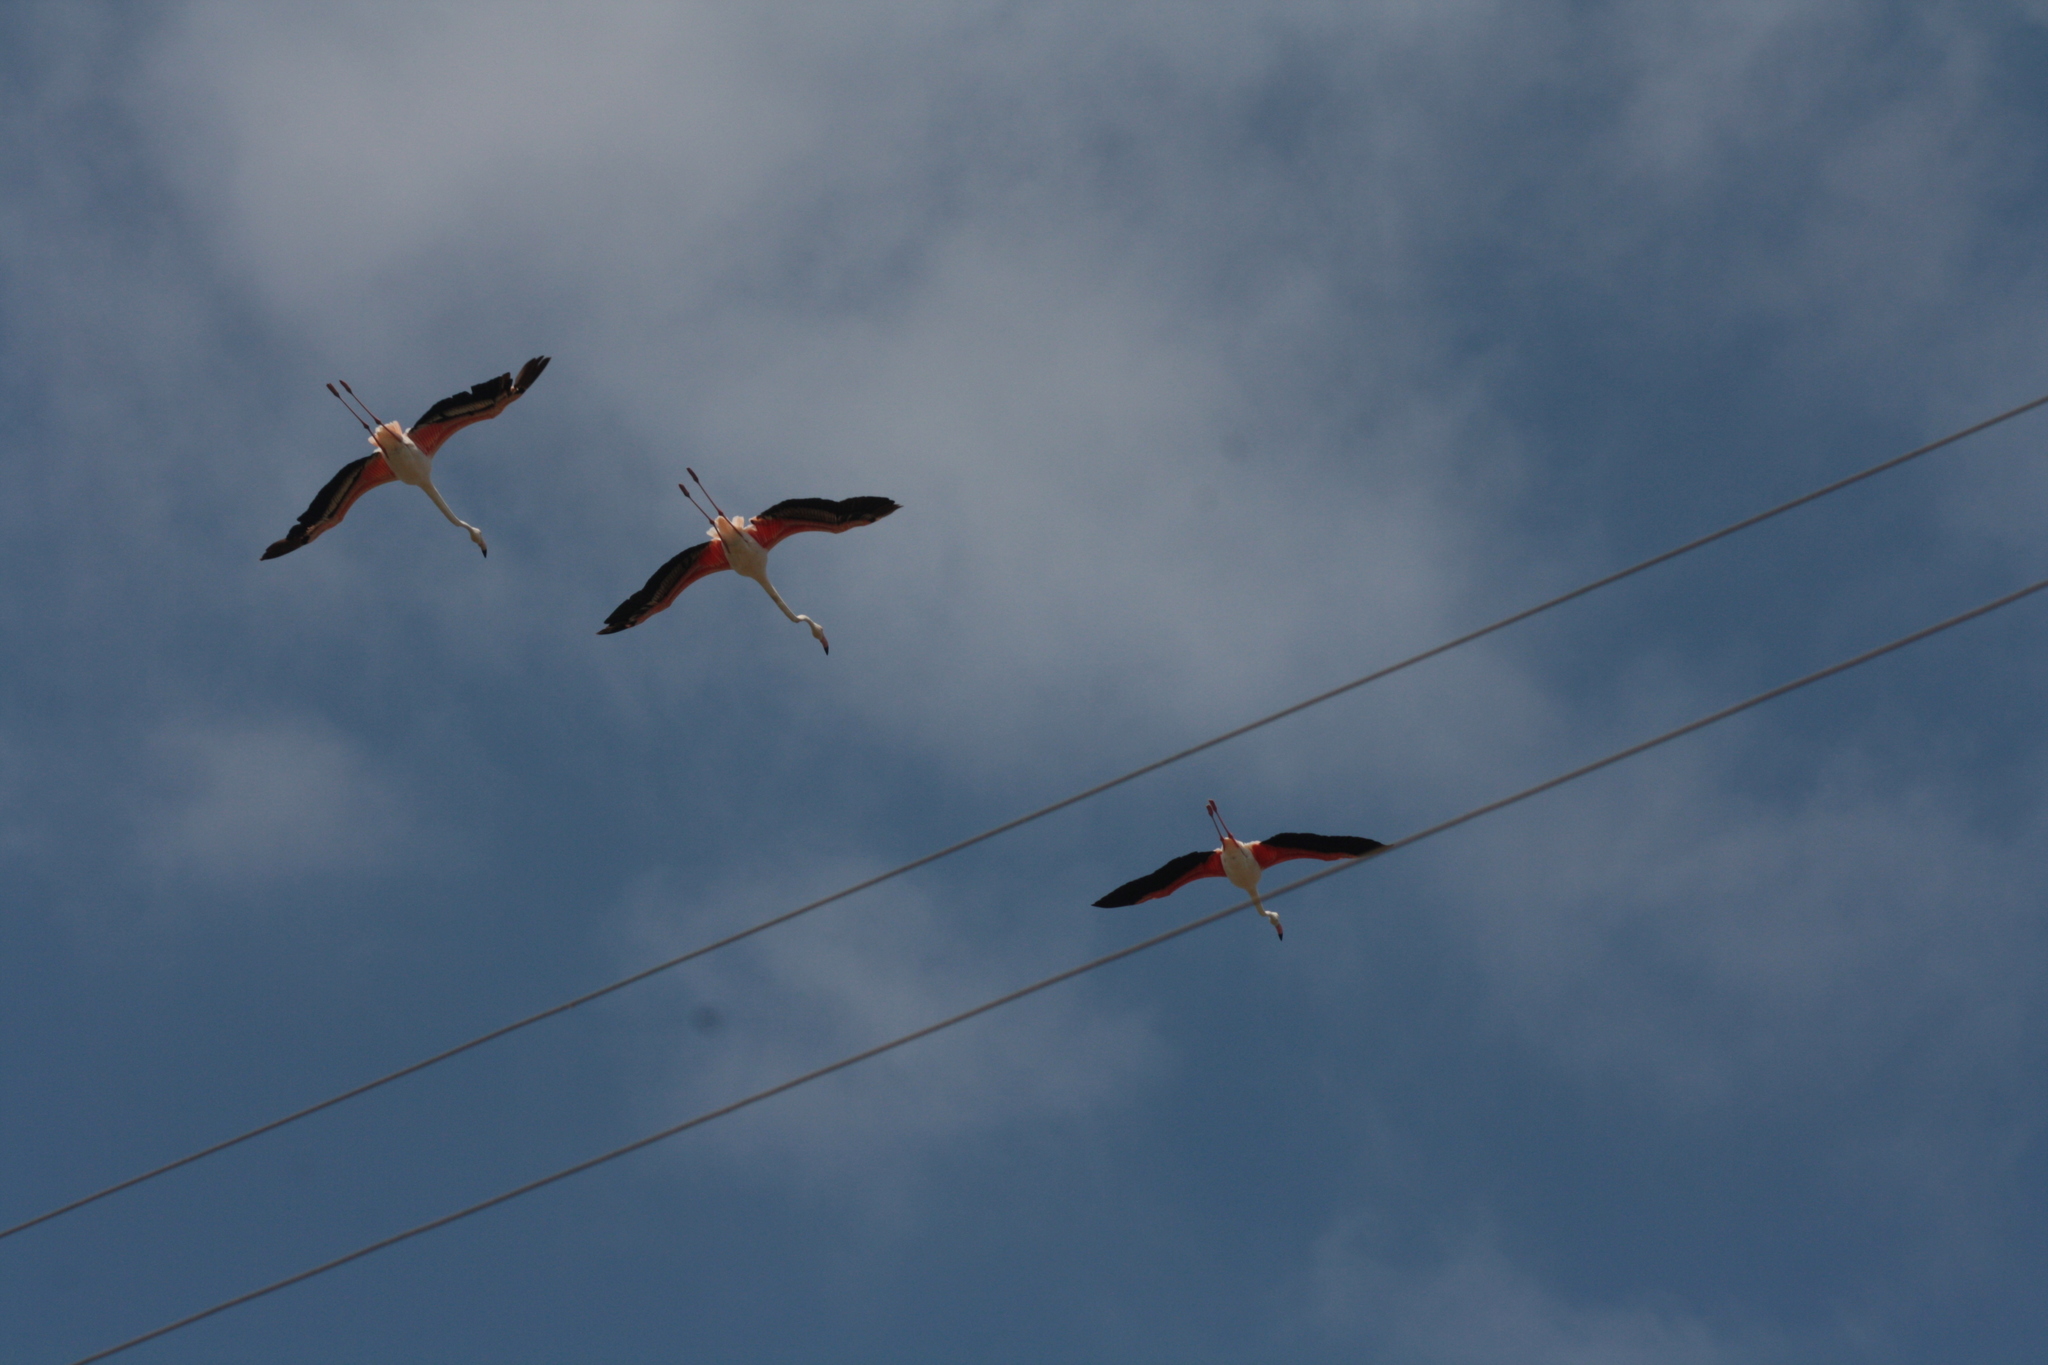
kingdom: Animalia
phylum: Chordata
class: Aves
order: Phoenicopteriformes
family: Phoenicopteridae
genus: Phoenicopterus
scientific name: Phoenicopterus roseus
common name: Greater flamingo
